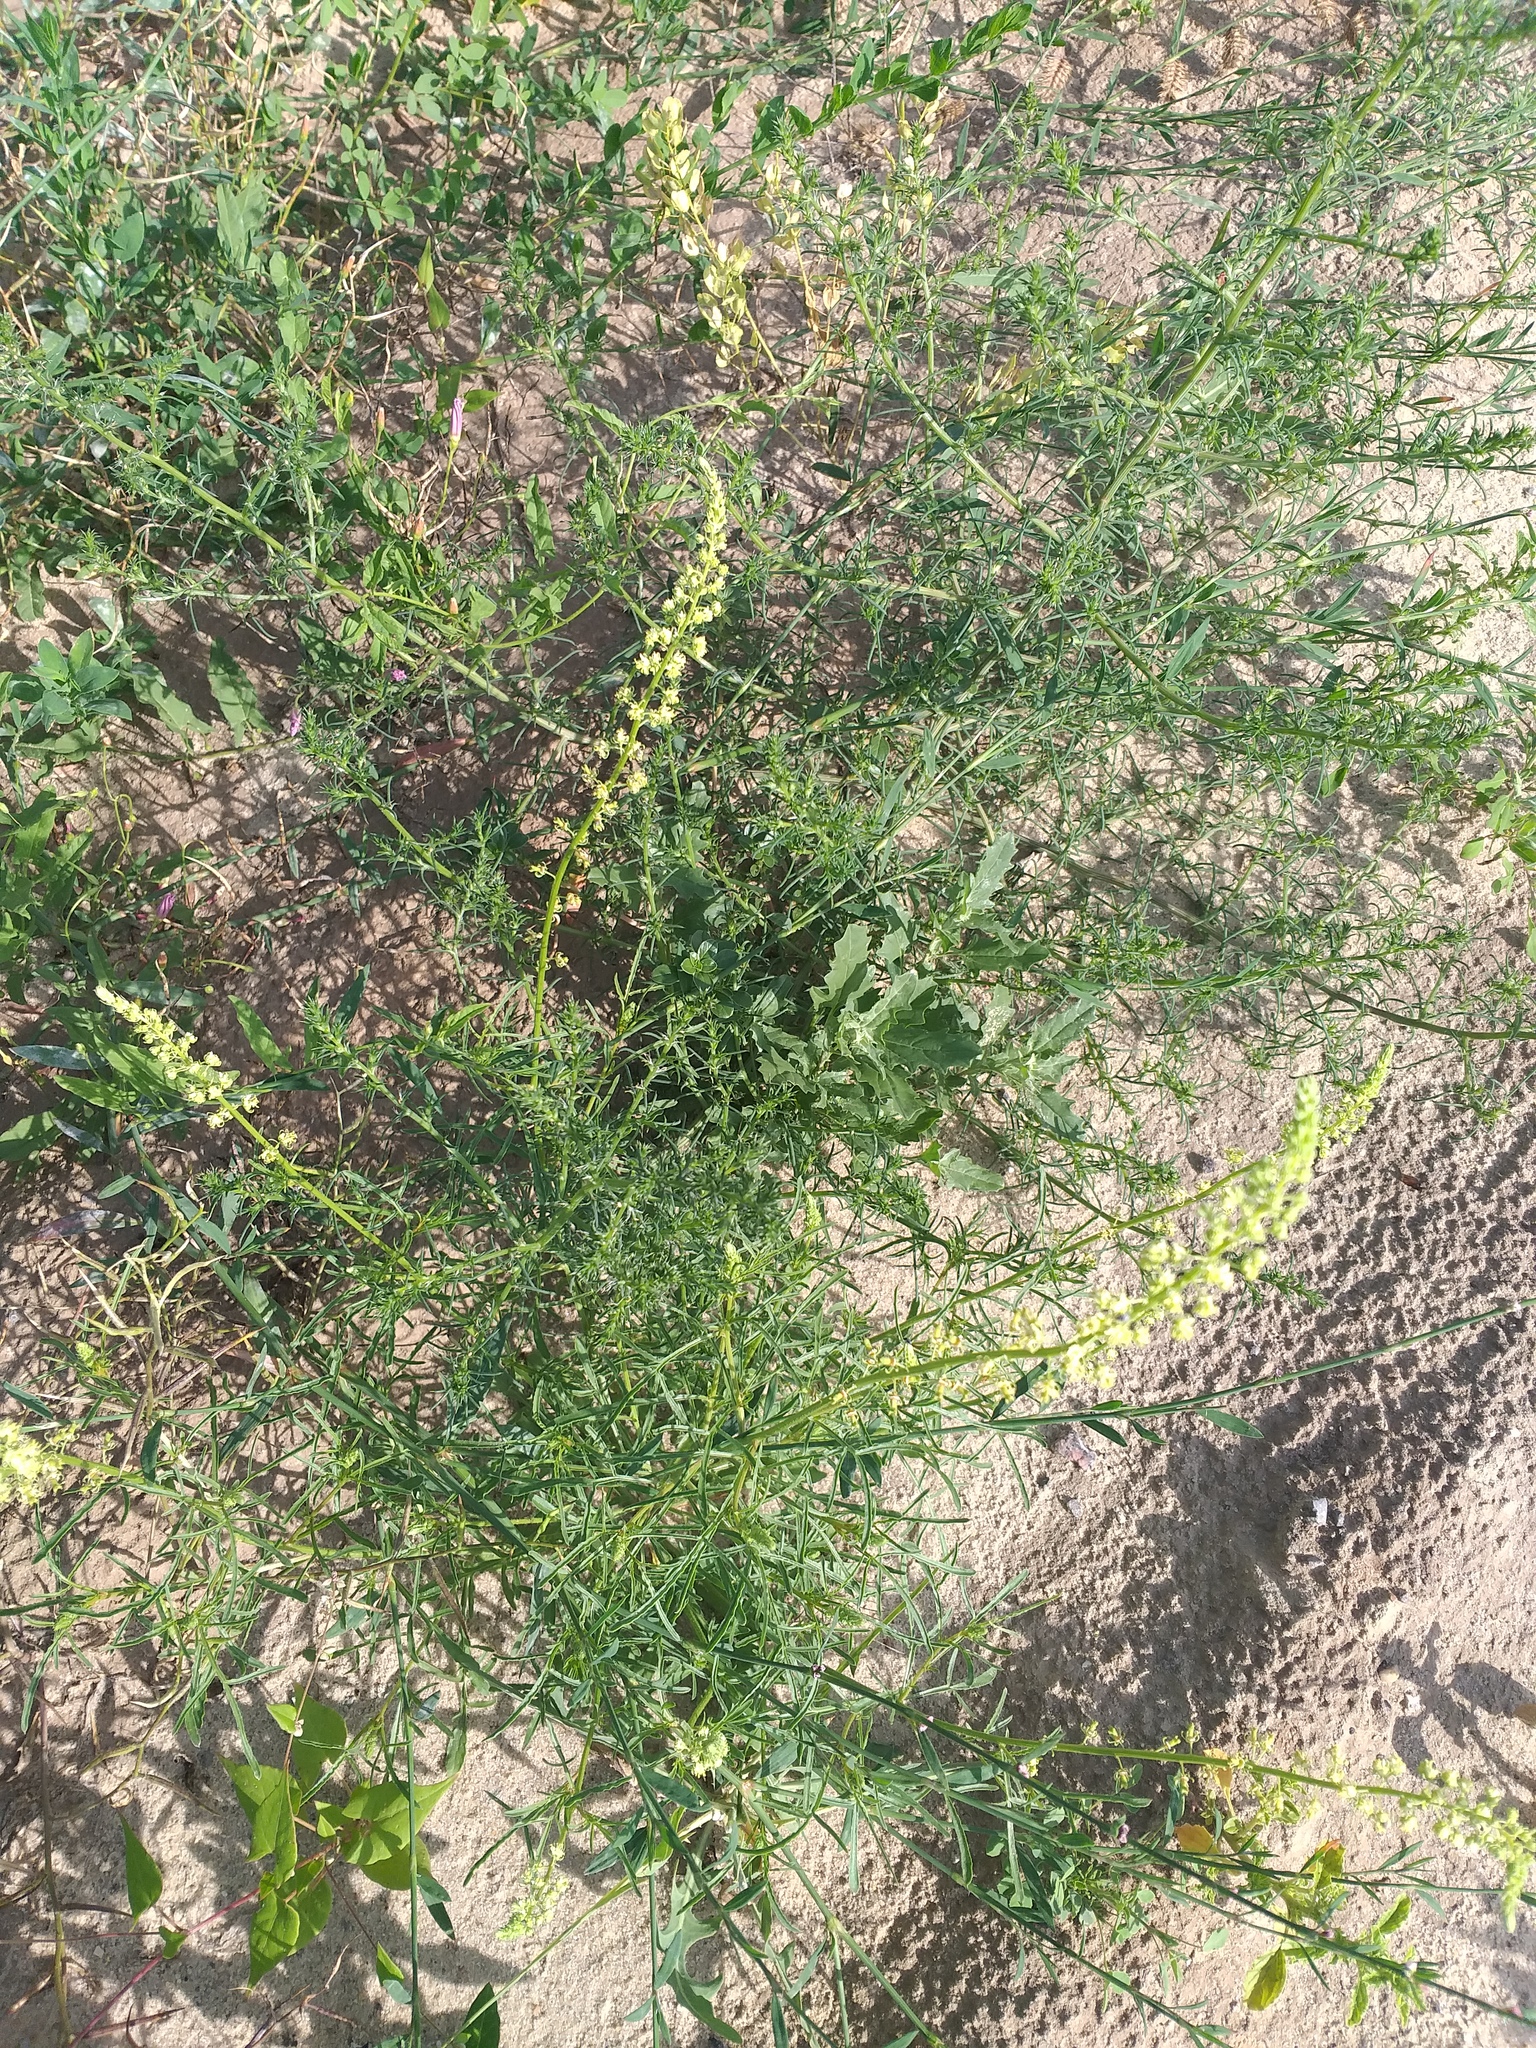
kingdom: Plantae
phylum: Tracheophyta
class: Magnoliopsida
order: Brassicales
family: Resedaceae
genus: Reseda
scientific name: Reseda lutea
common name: Wild mignonette
